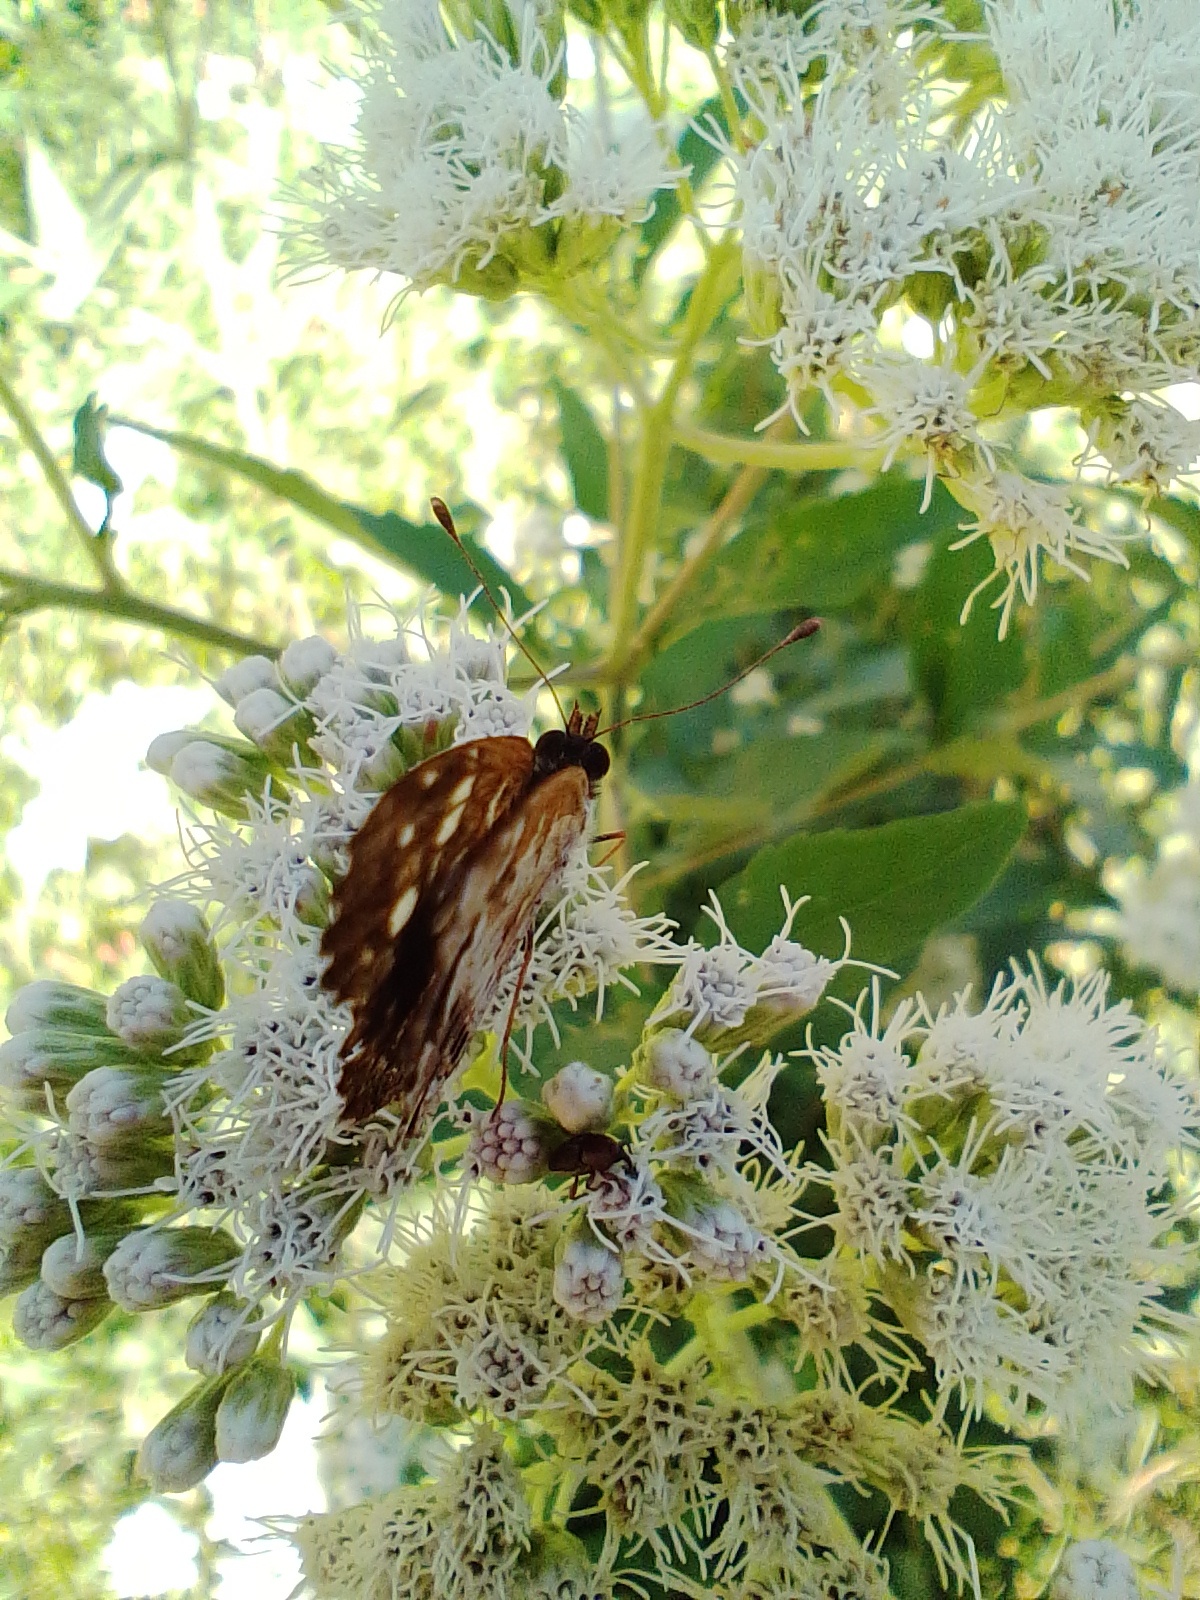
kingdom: Animalia
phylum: Arthropoda
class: Insecta
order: Lepidoptera
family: Nymphalidae
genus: Ortilia
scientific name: Ortilia ithra
